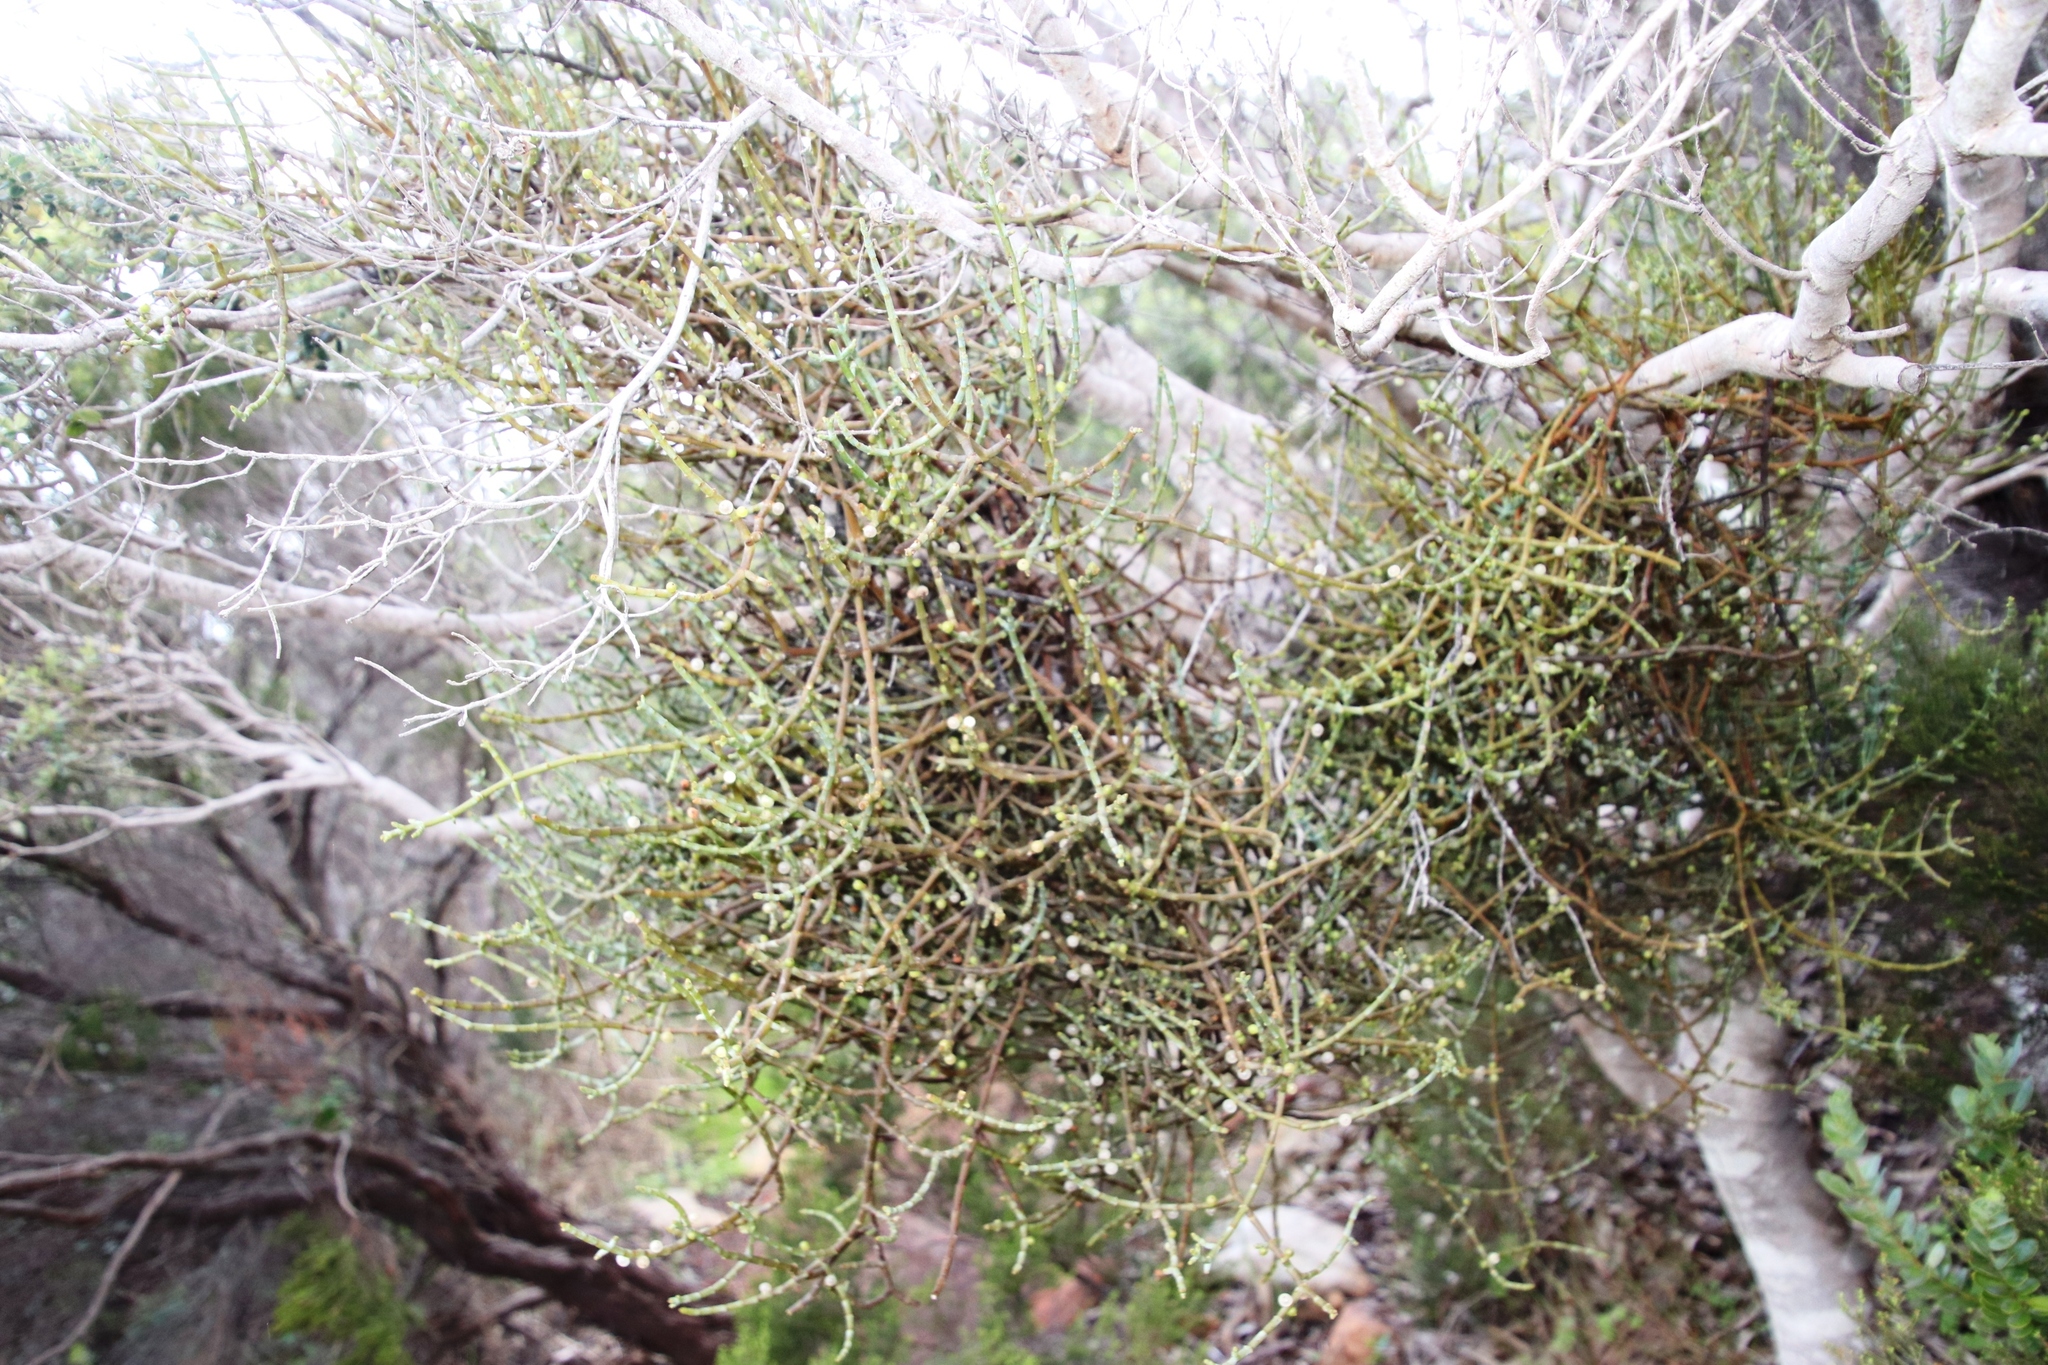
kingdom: Plantae
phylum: Tracheophyta
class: Magnoliopsida
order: Santalales
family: Viscaceae
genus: Viscum
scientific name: Viscum capense
